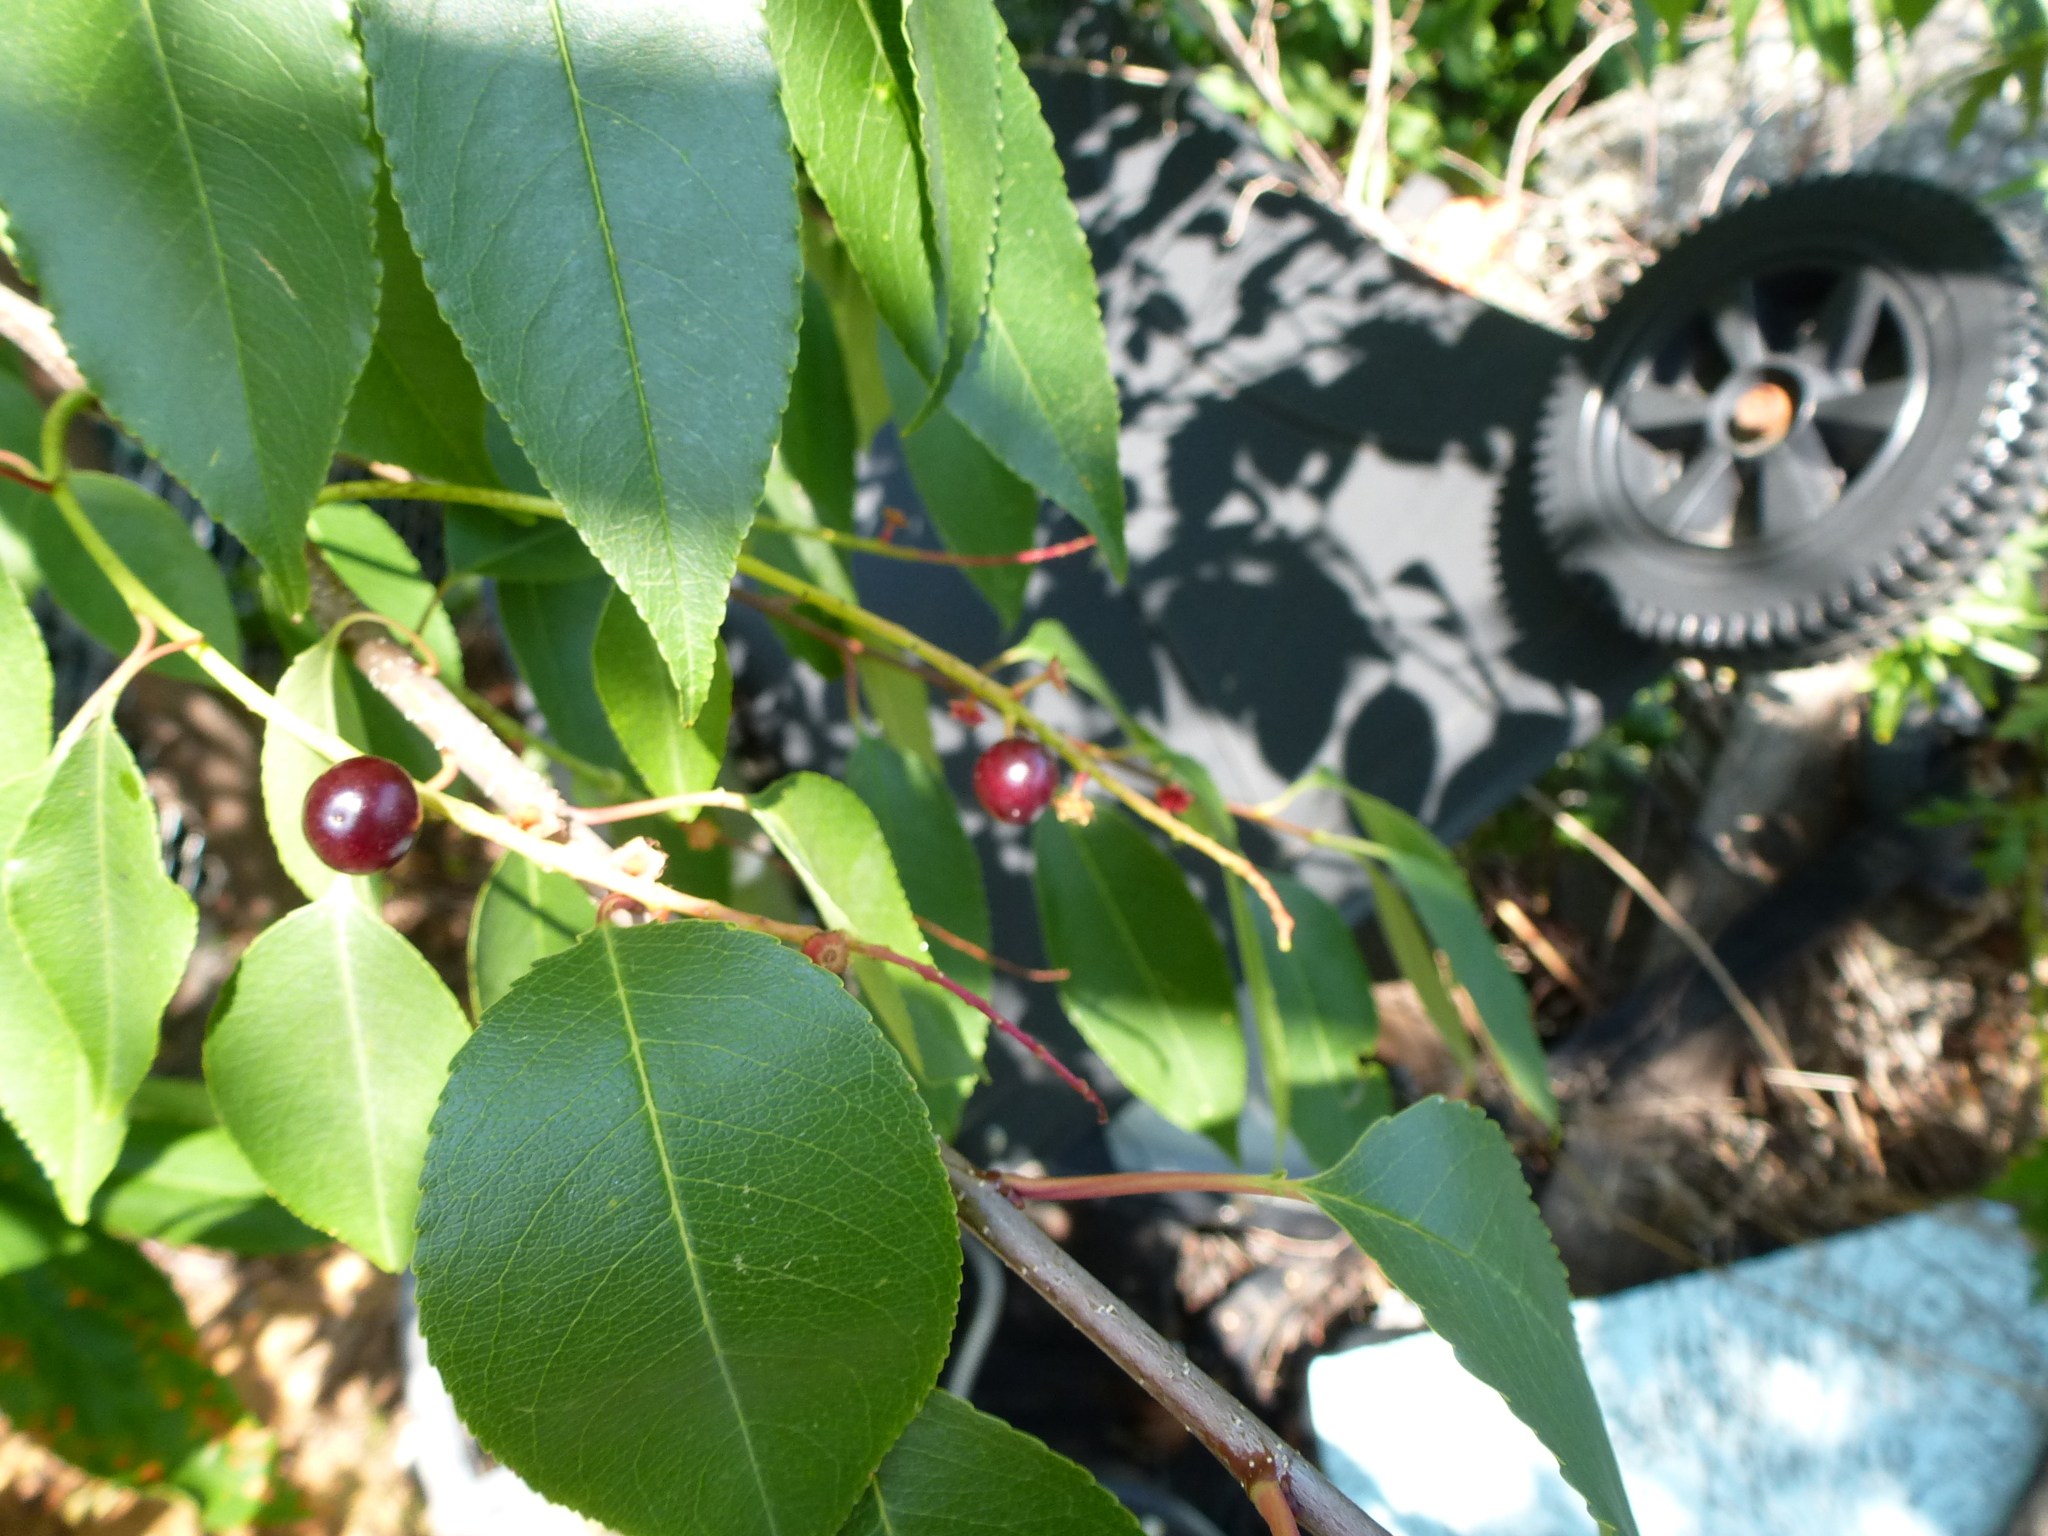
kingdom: Plantae
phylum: Tracheophyta
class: Magnoliopsida
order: Rosales
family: Rosaceae
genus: Prunus
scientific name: Prunus serotina
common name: Black cherry
